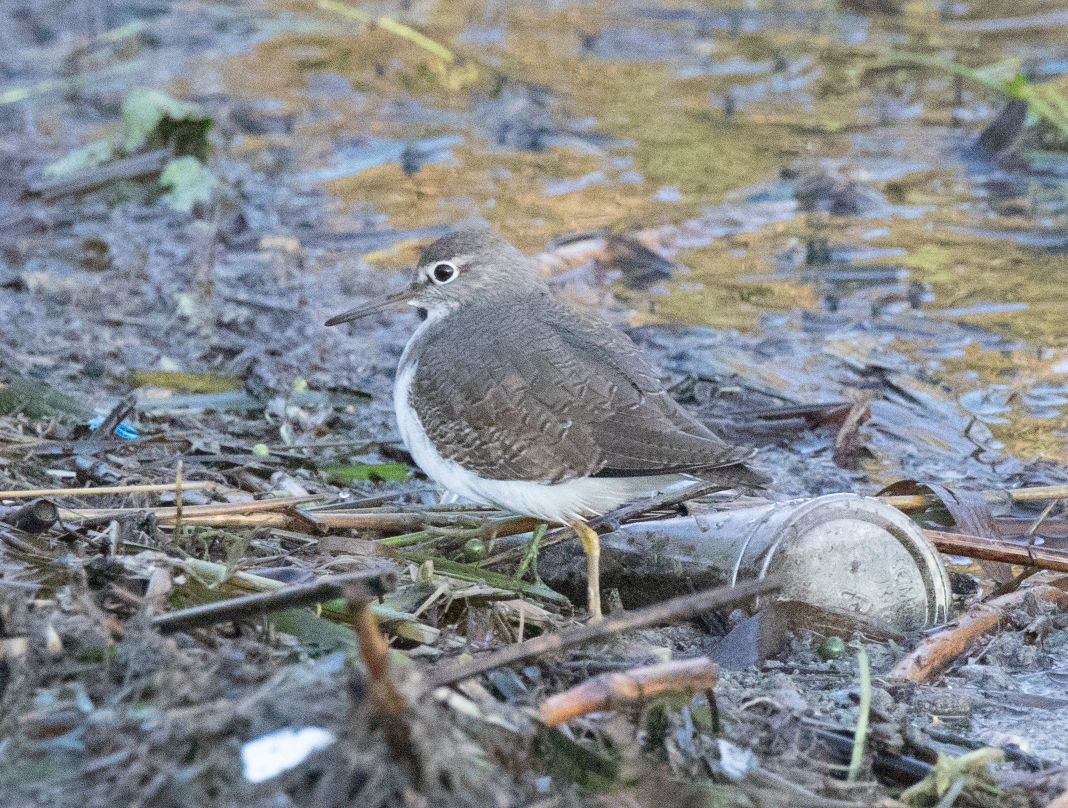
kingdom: Animalia
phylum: Chordata
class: Aves
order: Charadriiformes
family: Scolopacidae
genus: Actitis
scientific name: Actitis hypoleucos
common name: Common sandpiper
